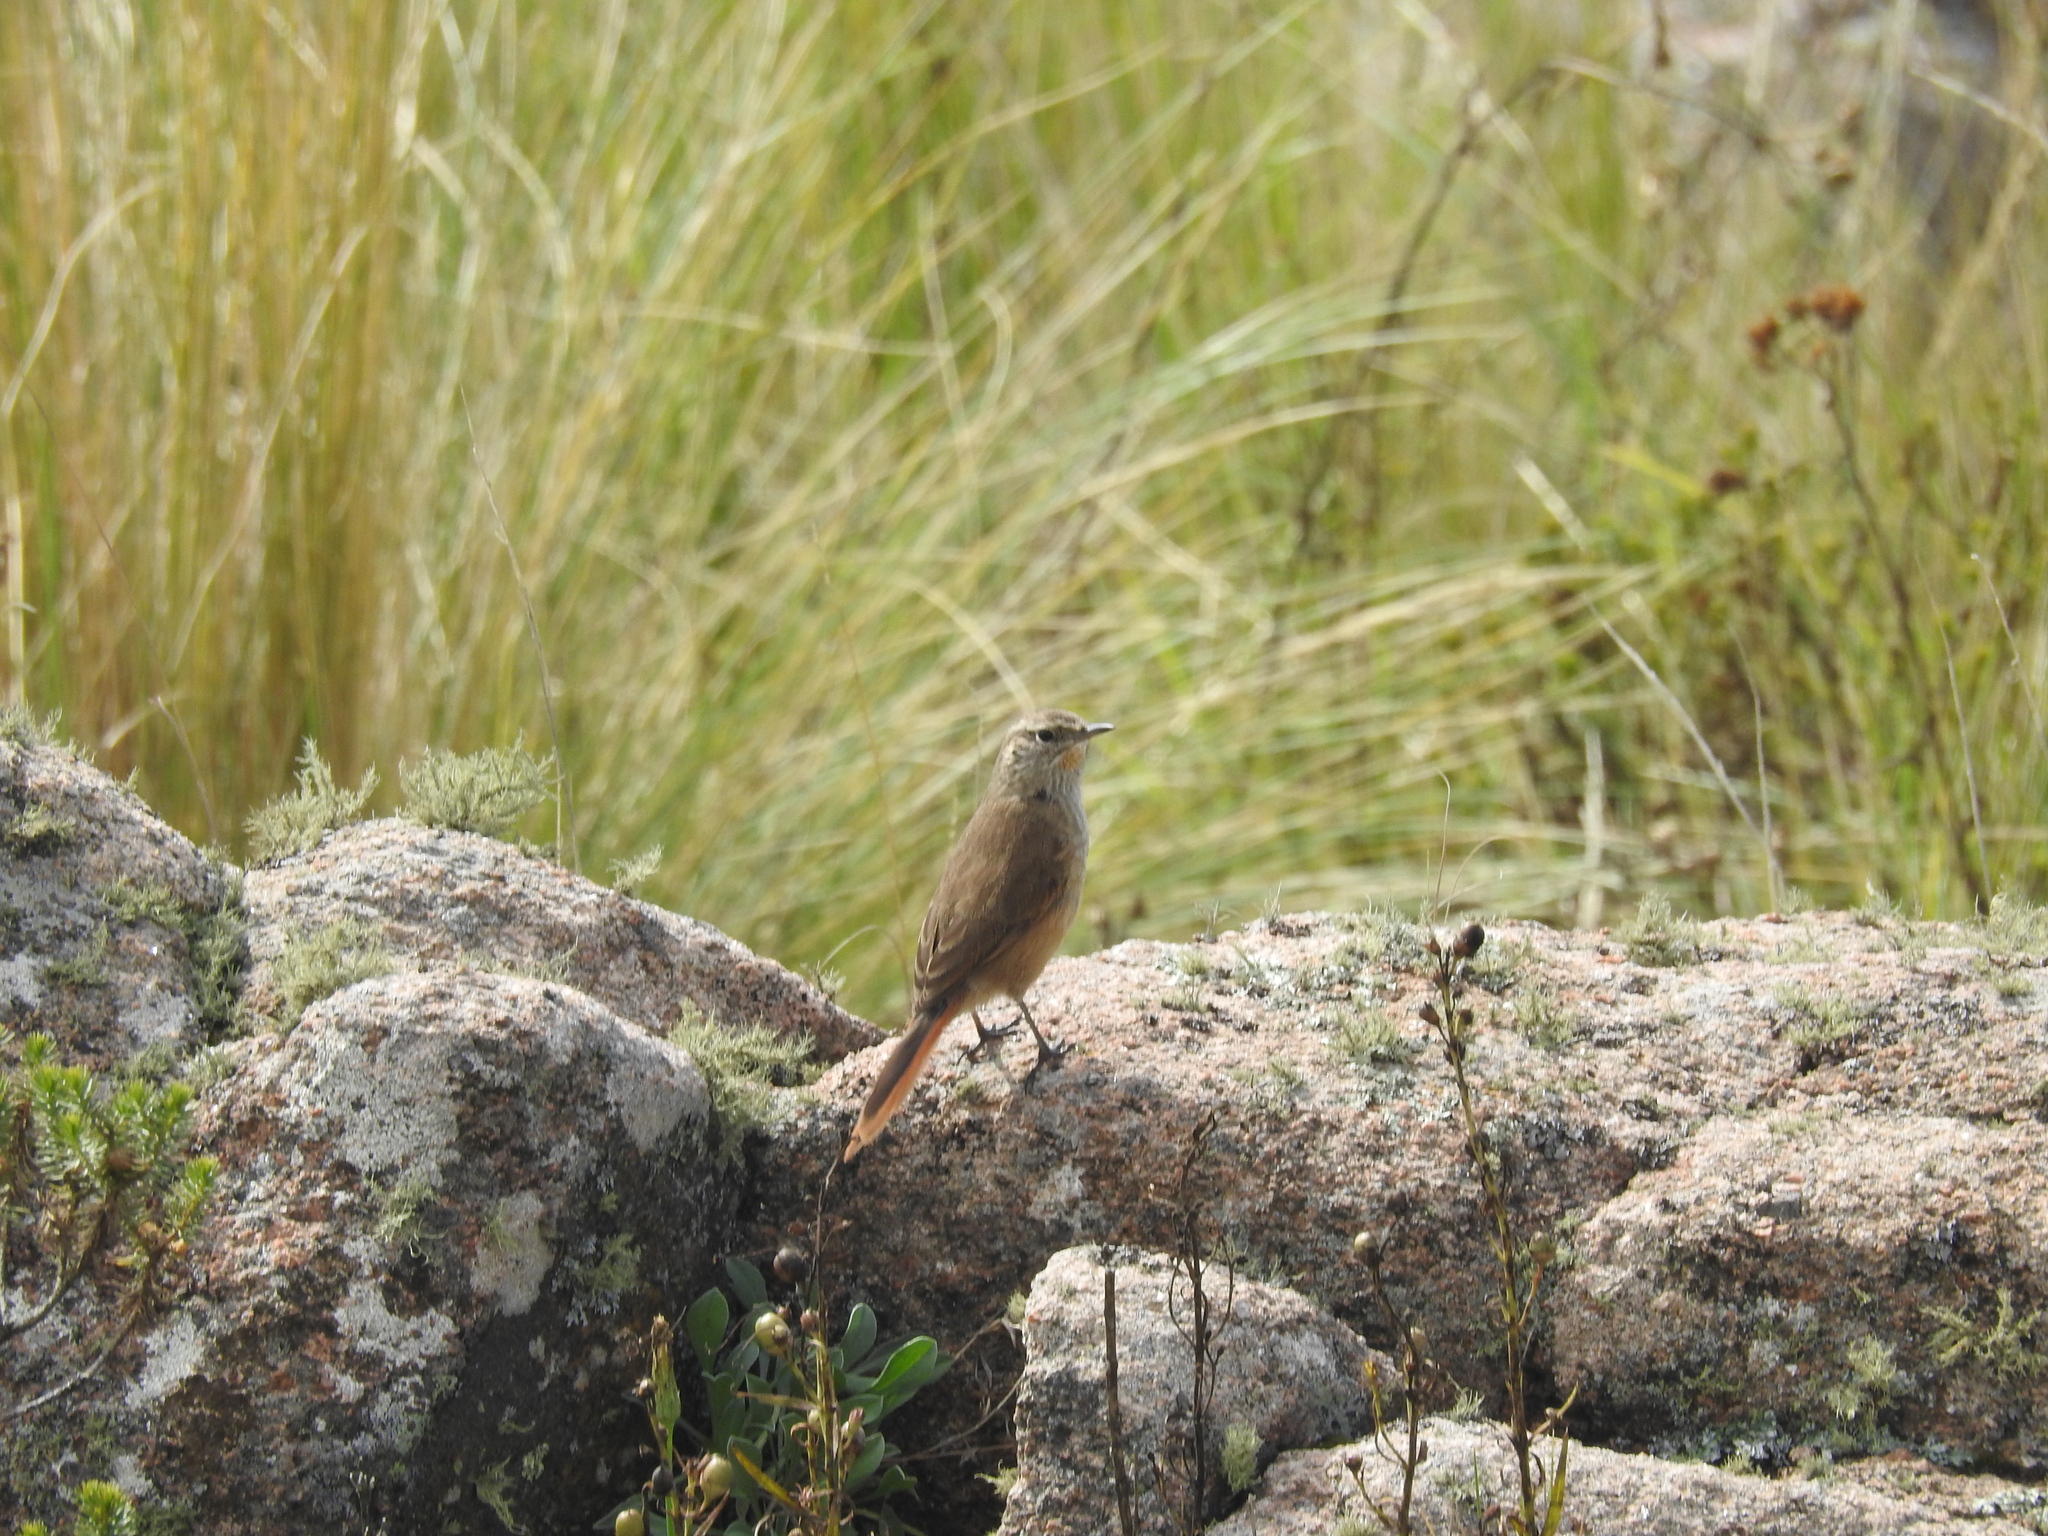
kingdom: Animalia
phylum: Chordata
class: Aves
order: Passeriformes
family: Furnariidae
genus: Asthenes
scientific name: Asthenes modesta
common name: Cordilleran canastero
